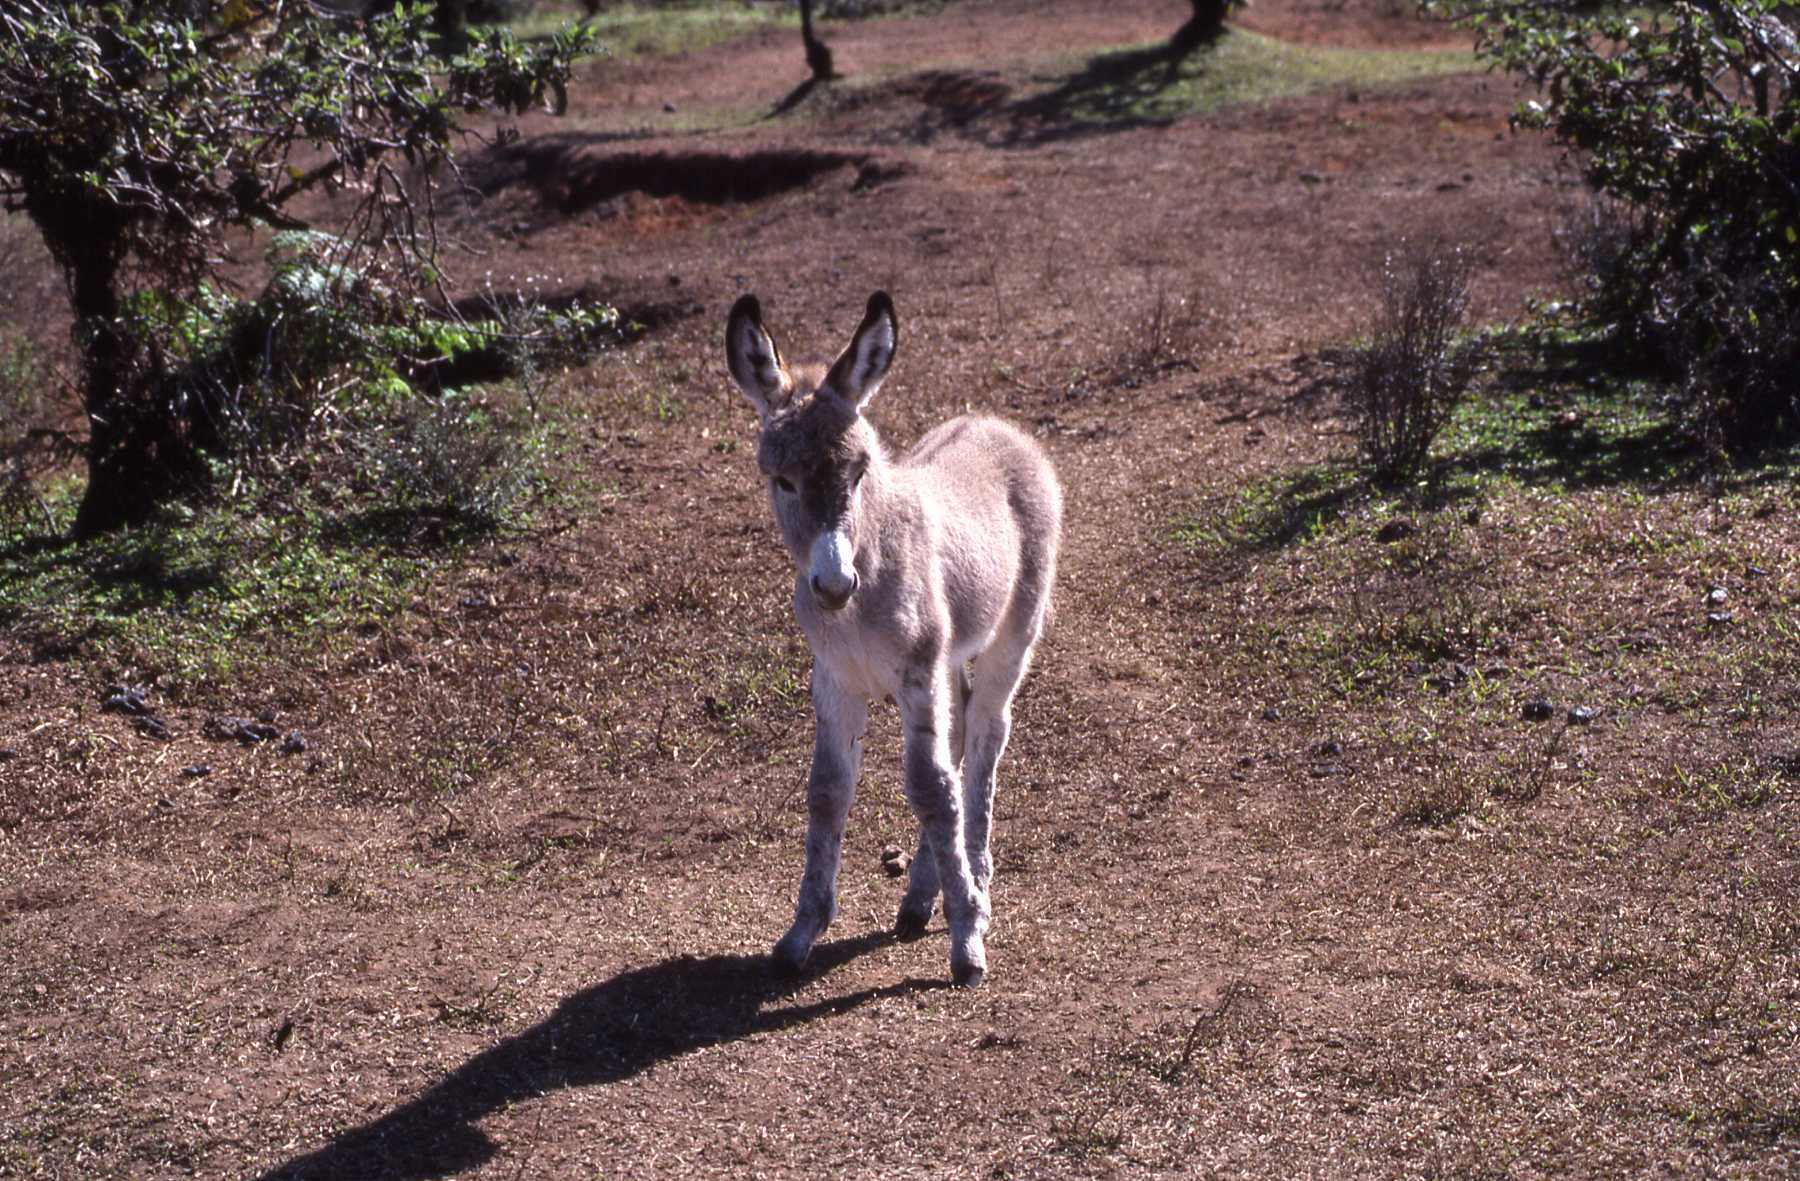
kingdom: Animalia
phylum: Chordata
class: Mammalia
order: Perissodactyla
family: Equidae
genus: Equus
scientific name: Equus asinus
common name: Ass
